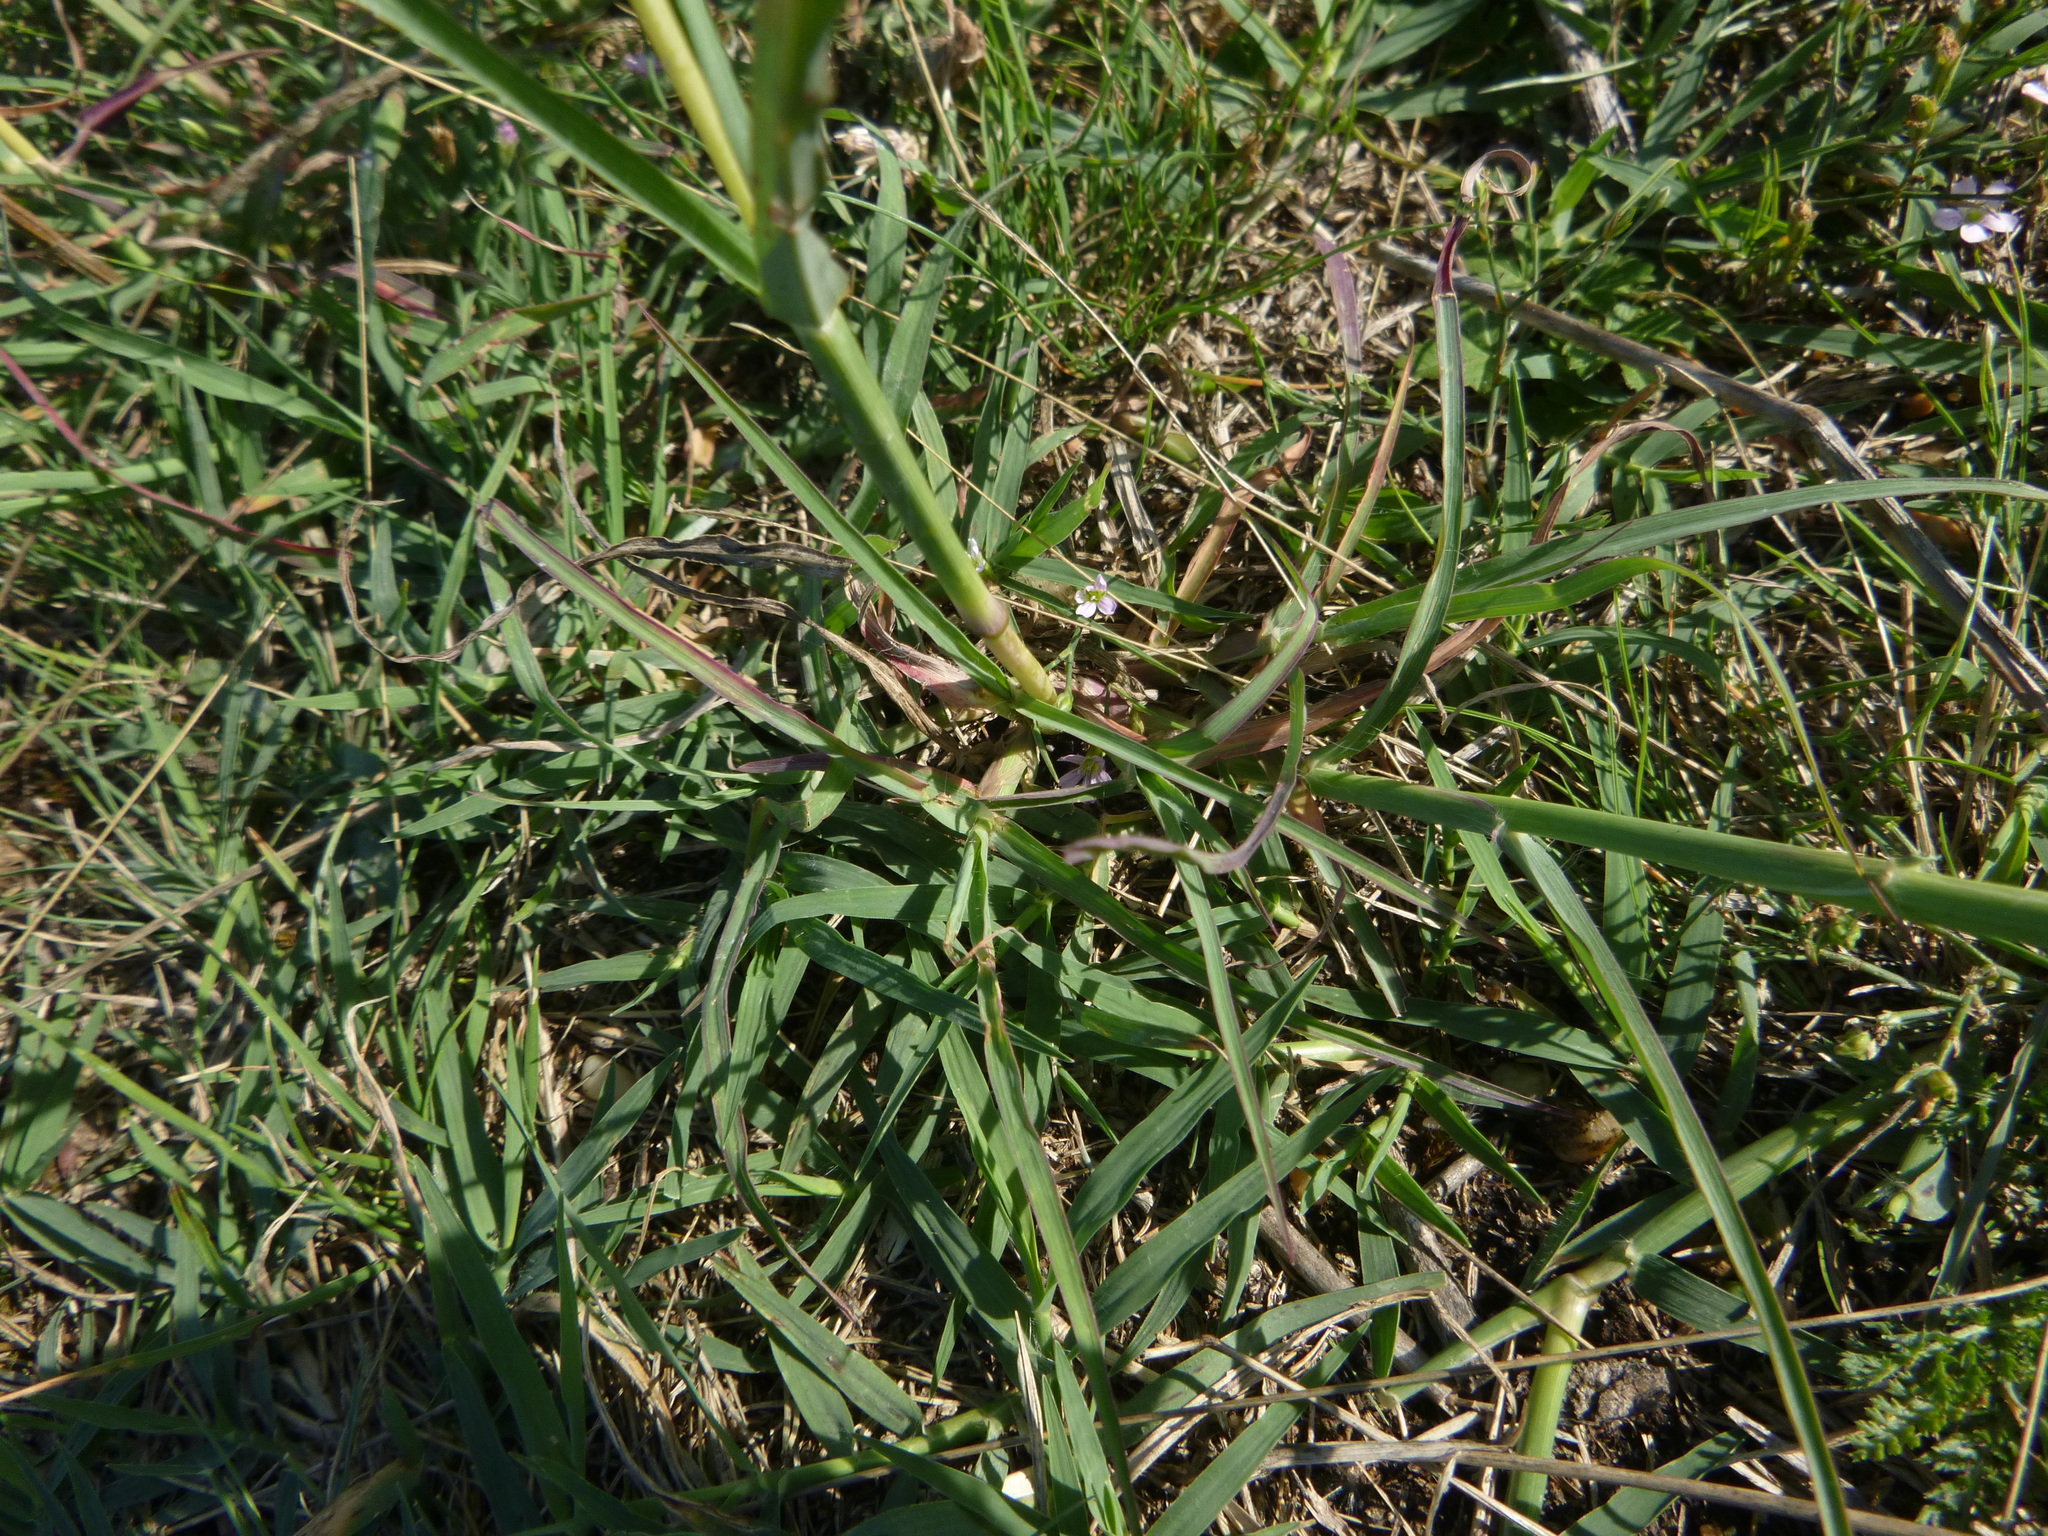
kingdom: Plantae
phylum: Tracheophyta
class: Liliopsida
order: Poales
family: Poaceae
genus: Bothriochloa
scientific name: Bothriochloa ischaemum
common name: Yellow bluestem
